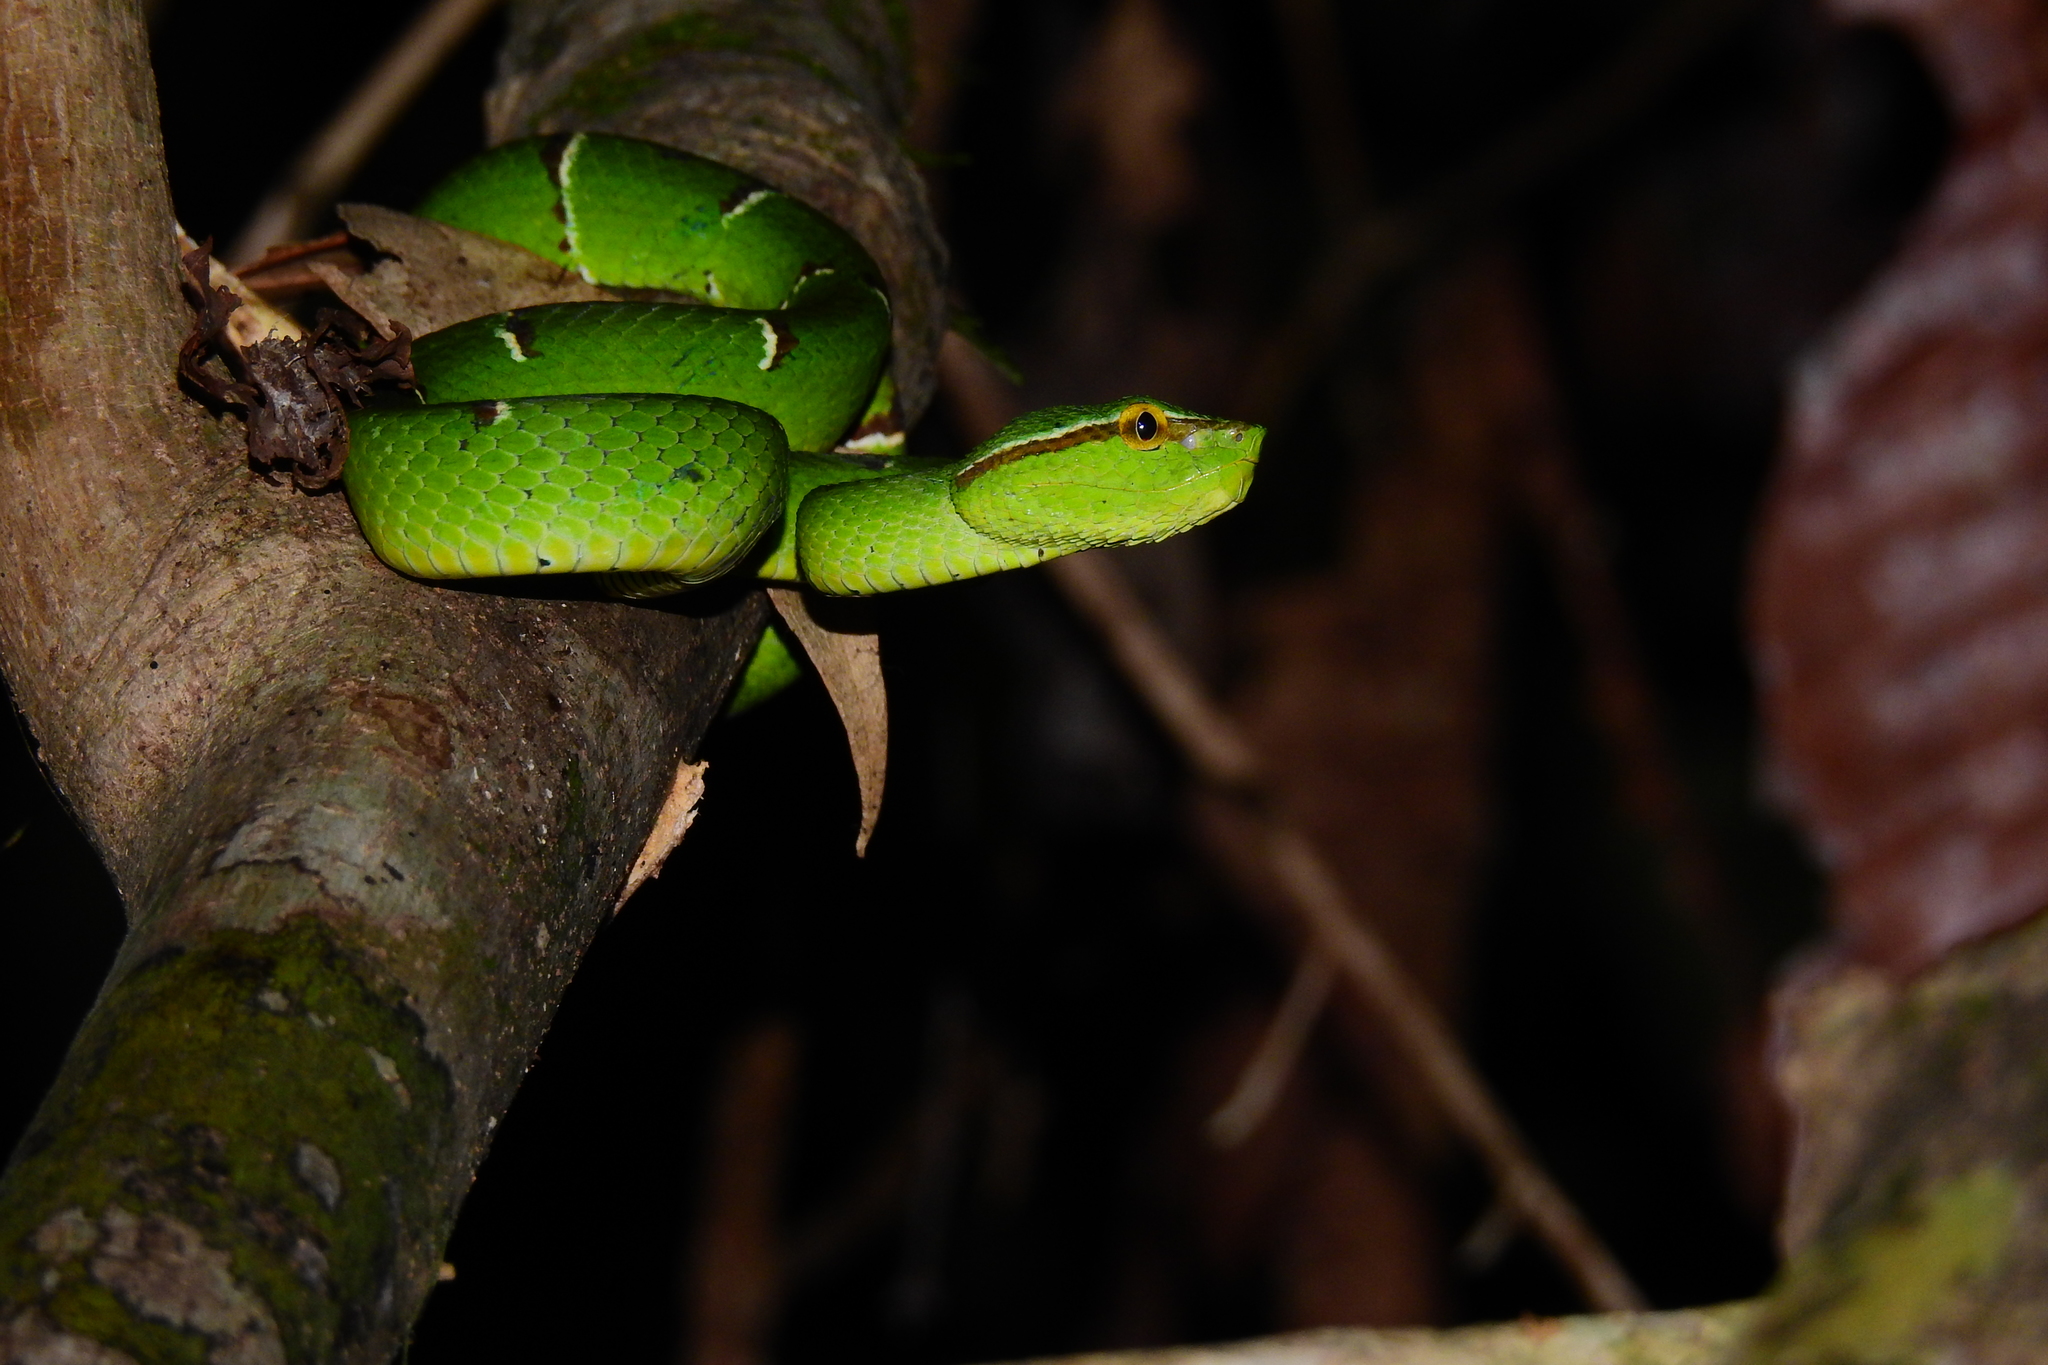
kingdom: Animalia
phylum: Chordata
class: Squamata
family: Viperidae
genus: Tropidolaemus
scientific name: Tropidolaemus subannulatus
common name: North philippine temple pitviper
